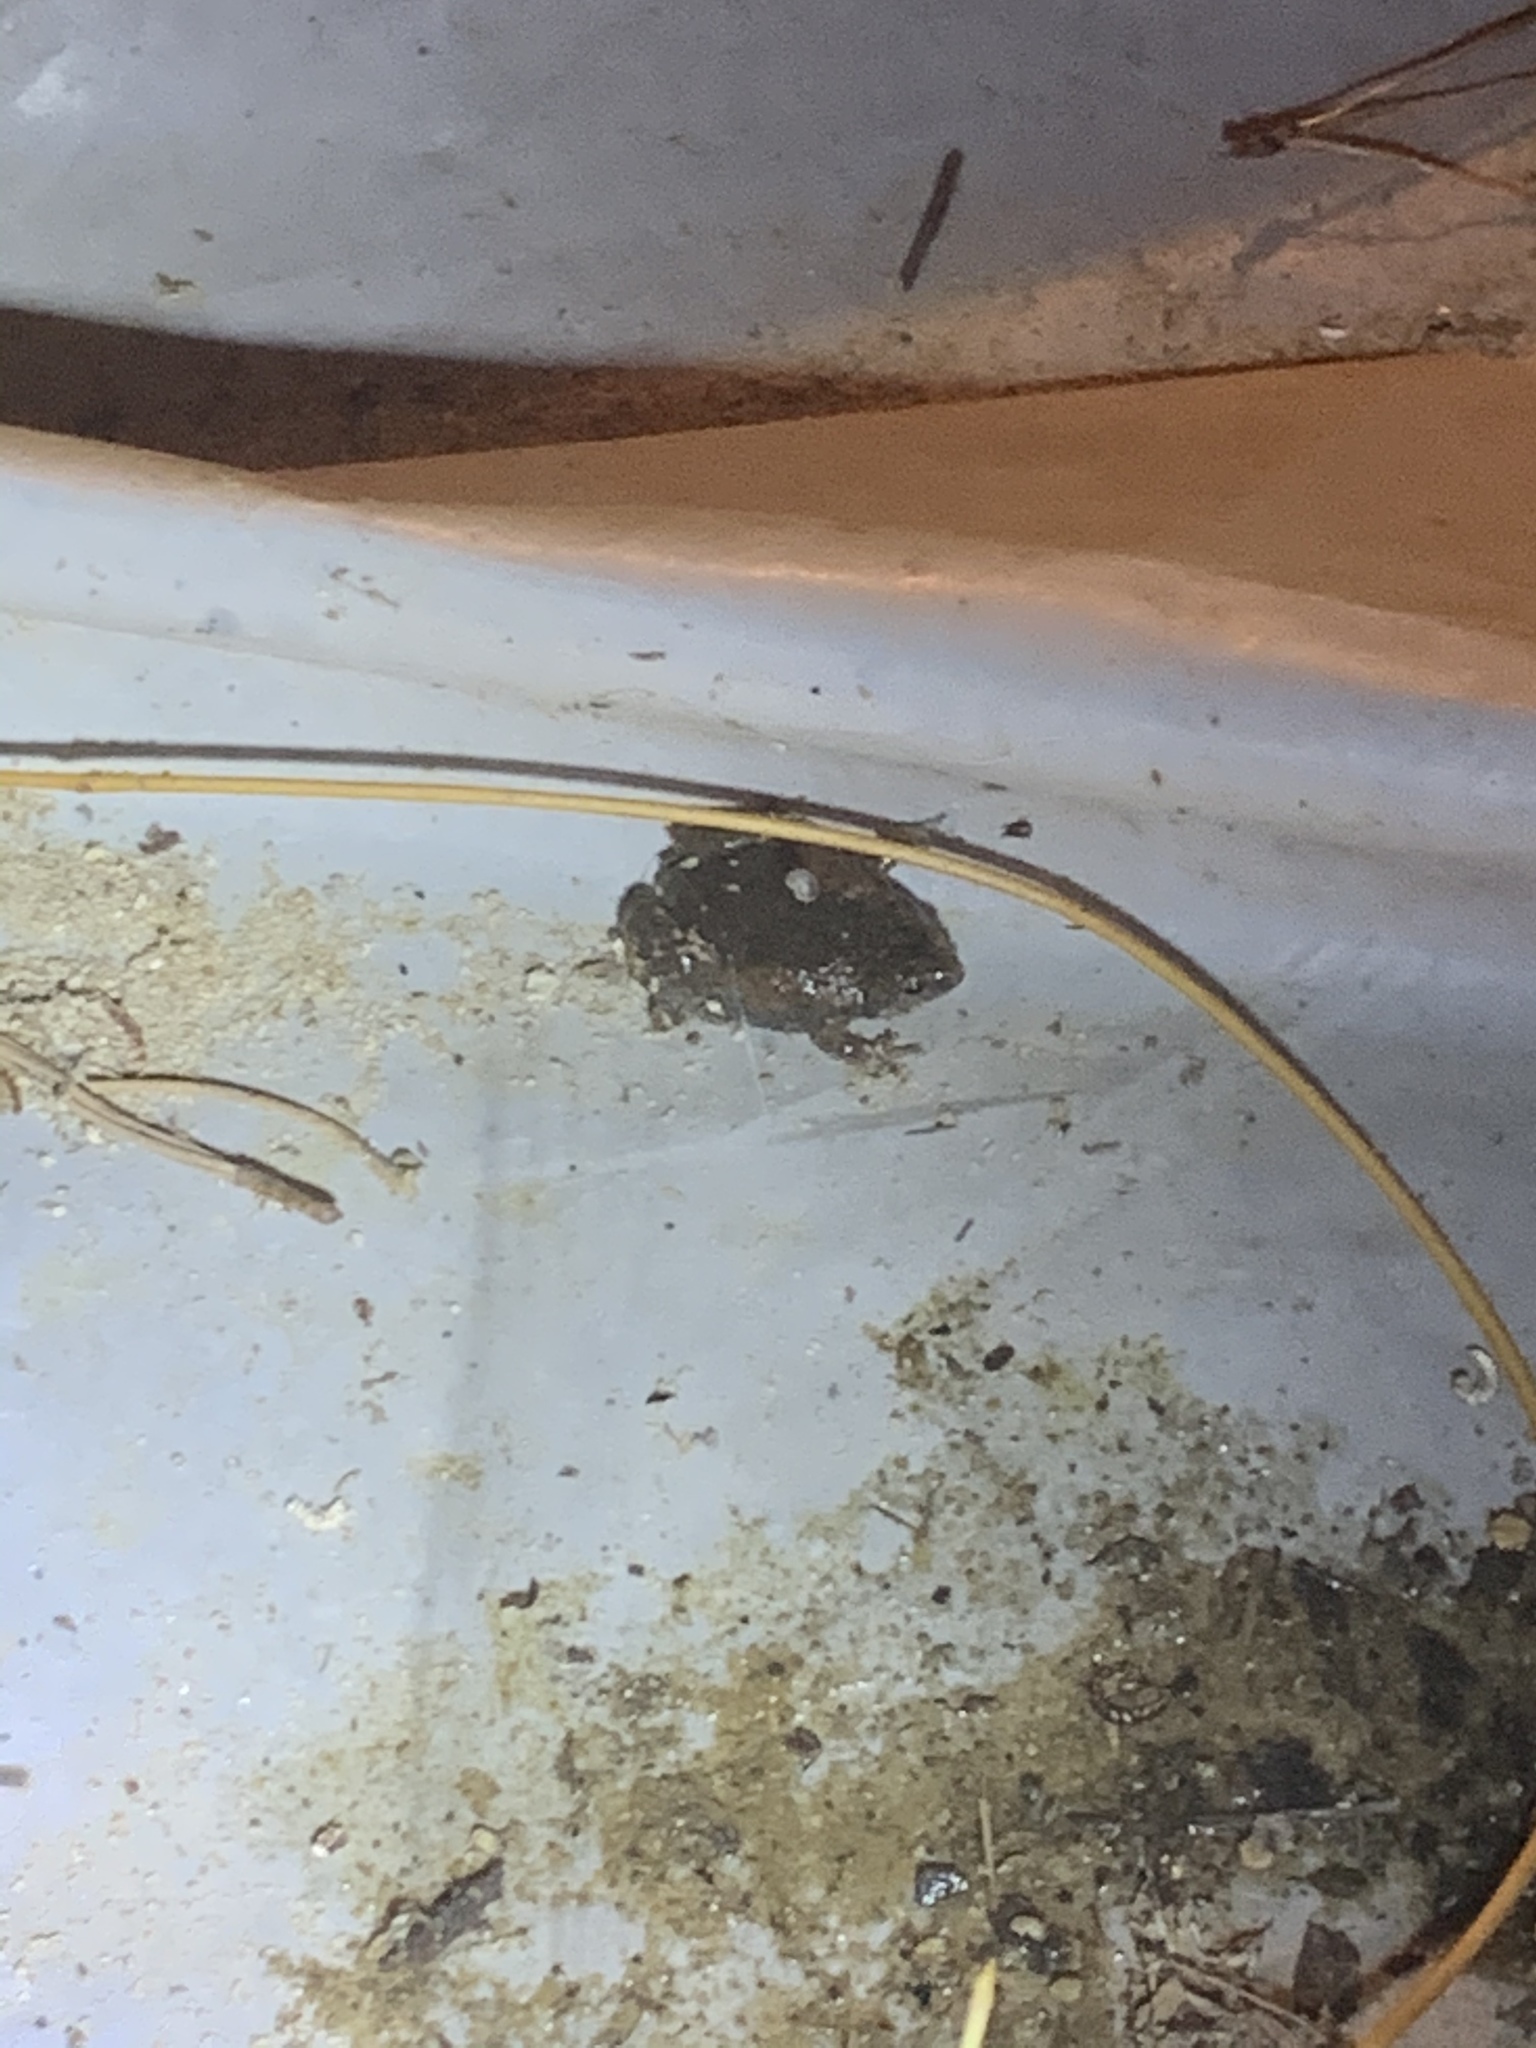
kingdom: Animalia
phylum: Chordata
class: Amphibia
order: Anura
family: Microhylidae
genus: Gastrophryne
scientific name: Gastrophryne carolinensis
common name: Eastern narrowmouth toad
